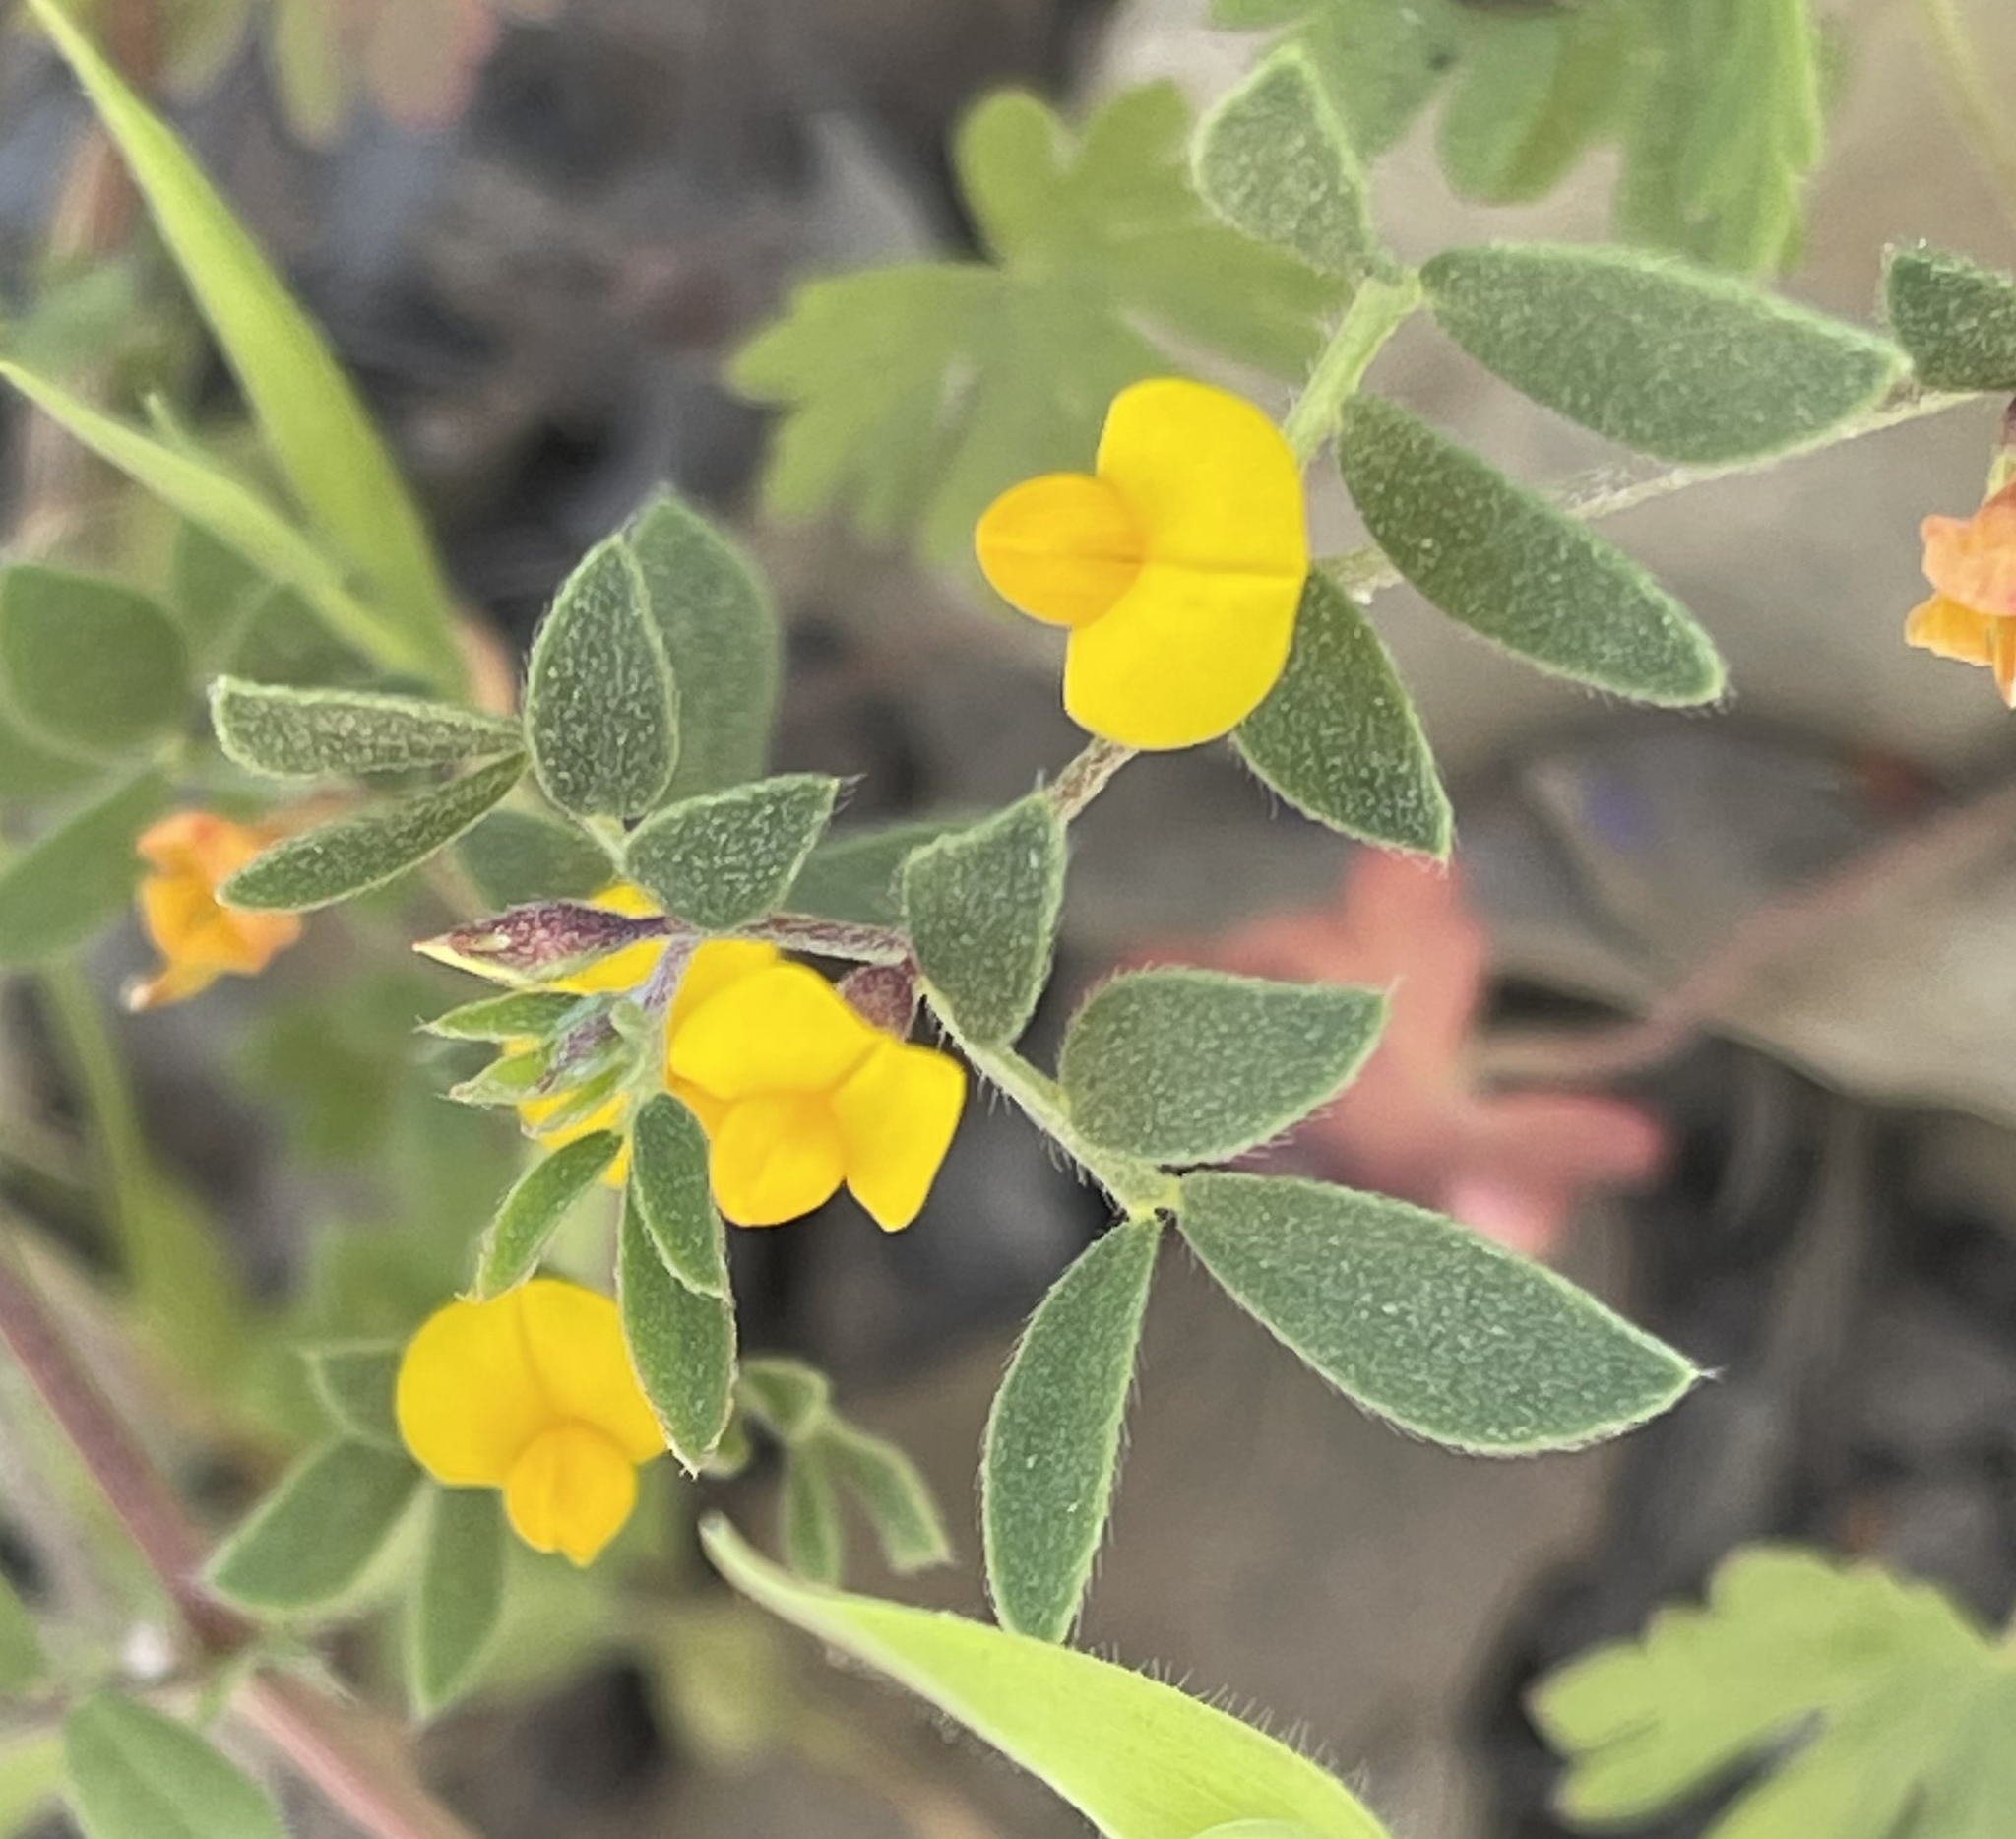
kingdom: Plantae
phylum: Tracheophyta
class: Magnoliopsida
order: Fabales
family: Fabaceae
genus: Acmispon
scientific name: Acmispon wrangelianus
